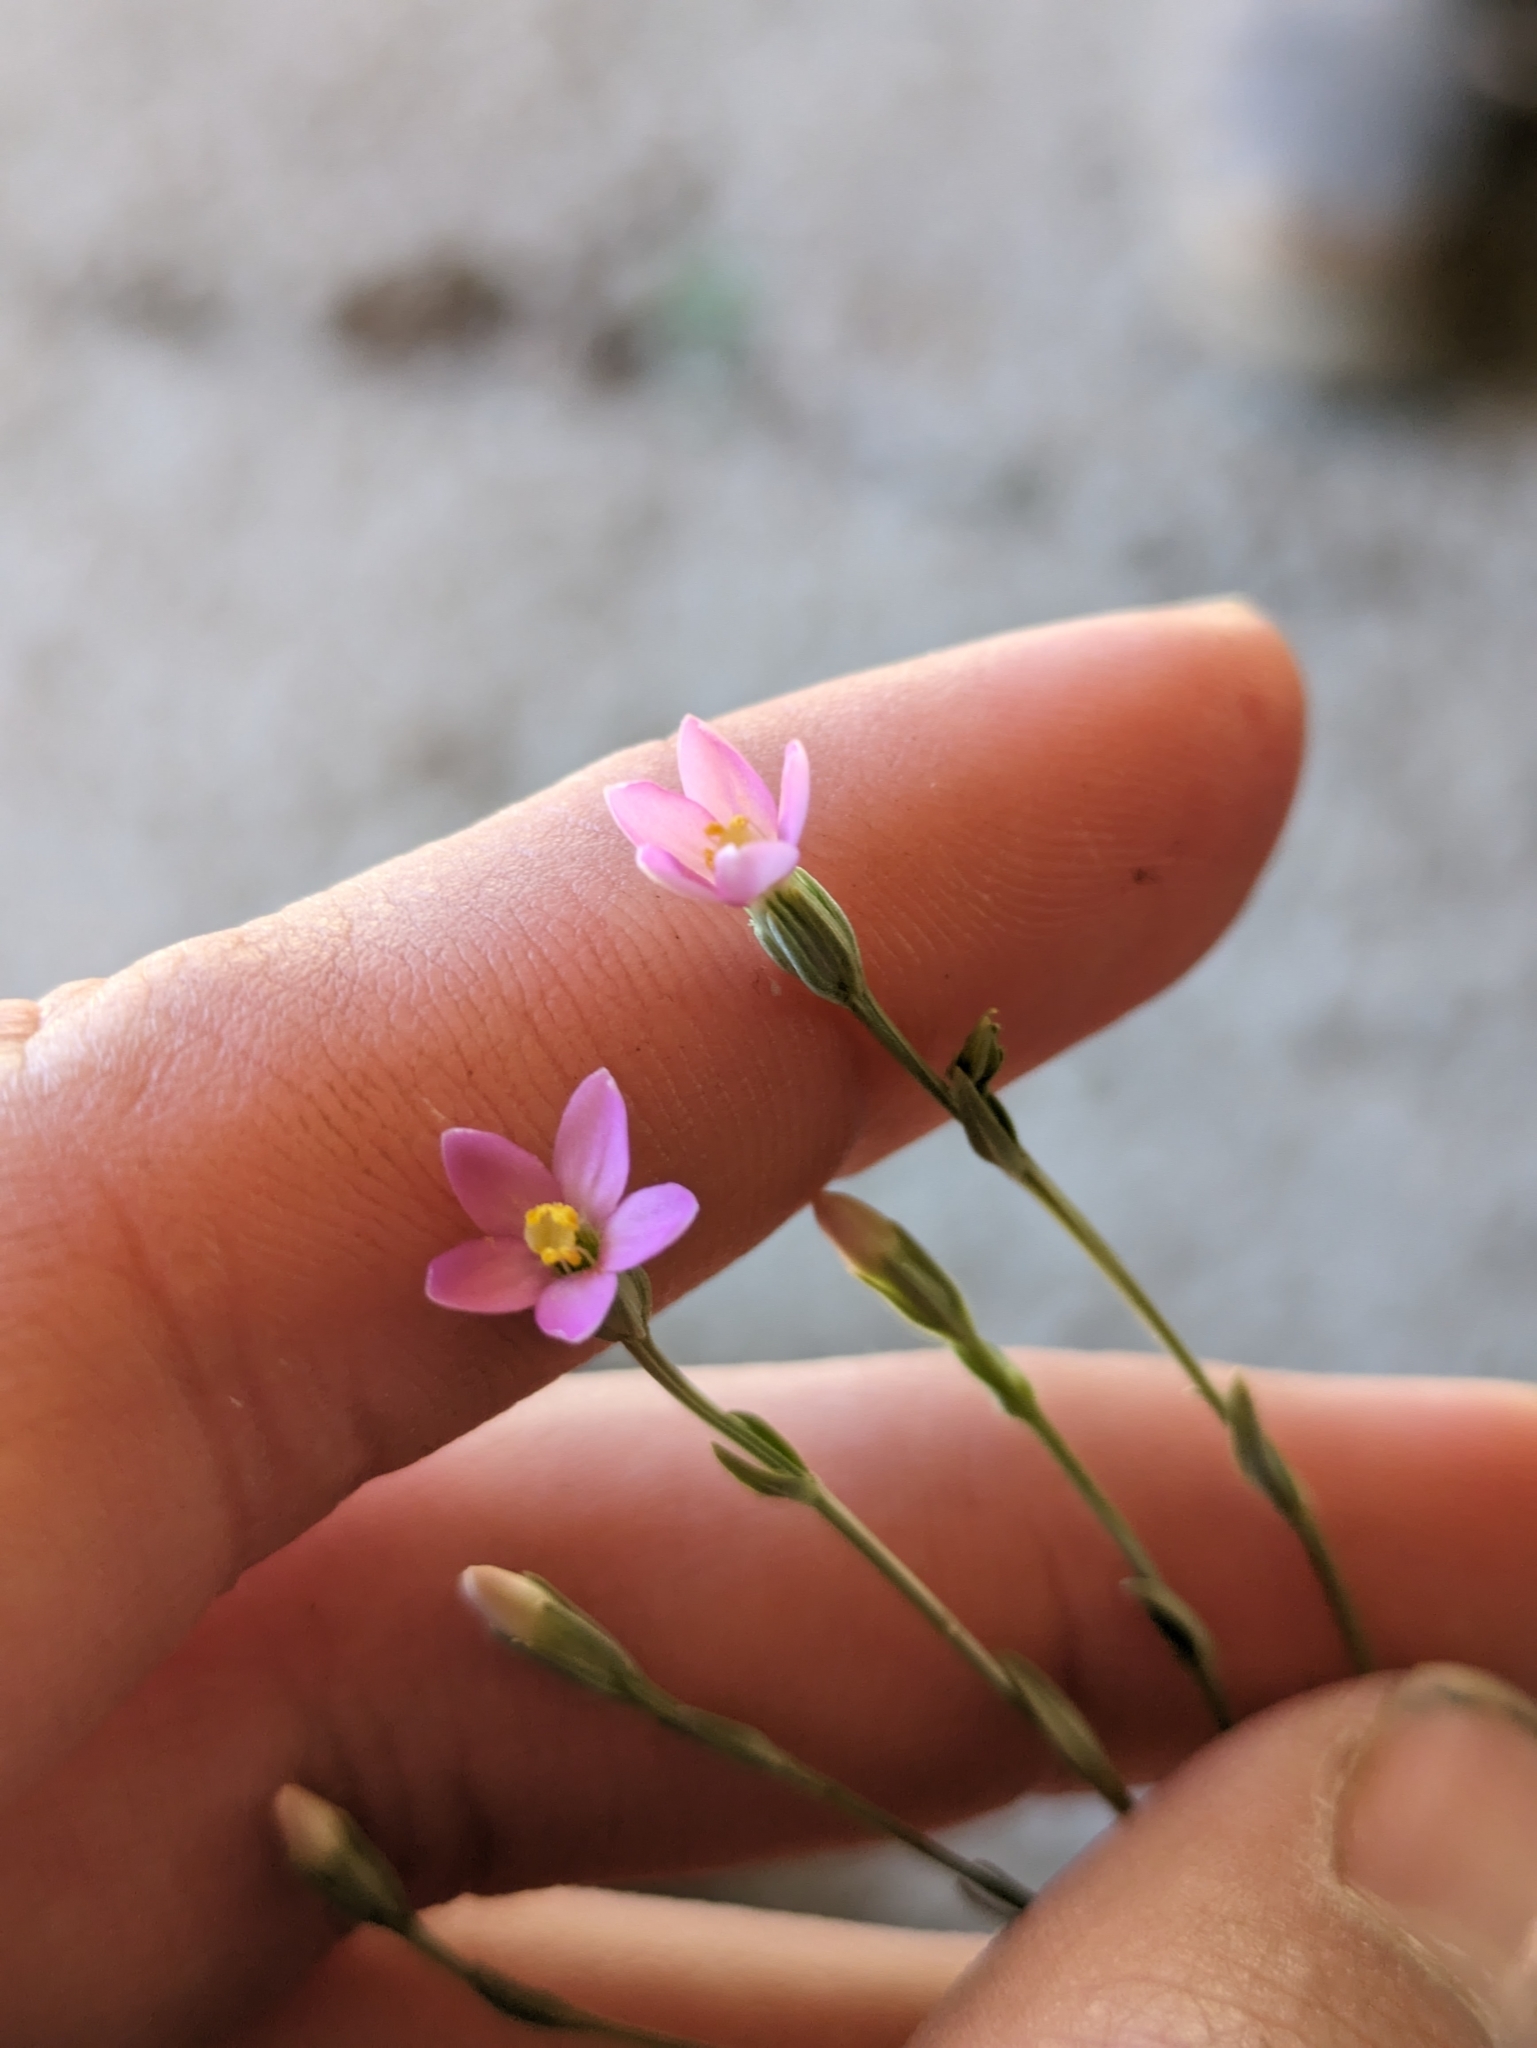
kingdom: Plantae
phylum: Tracheophyta
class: Magnoliopsida
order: Gentianales
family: Gentianaceae
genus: Centaurium
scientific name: Centaurium capense
